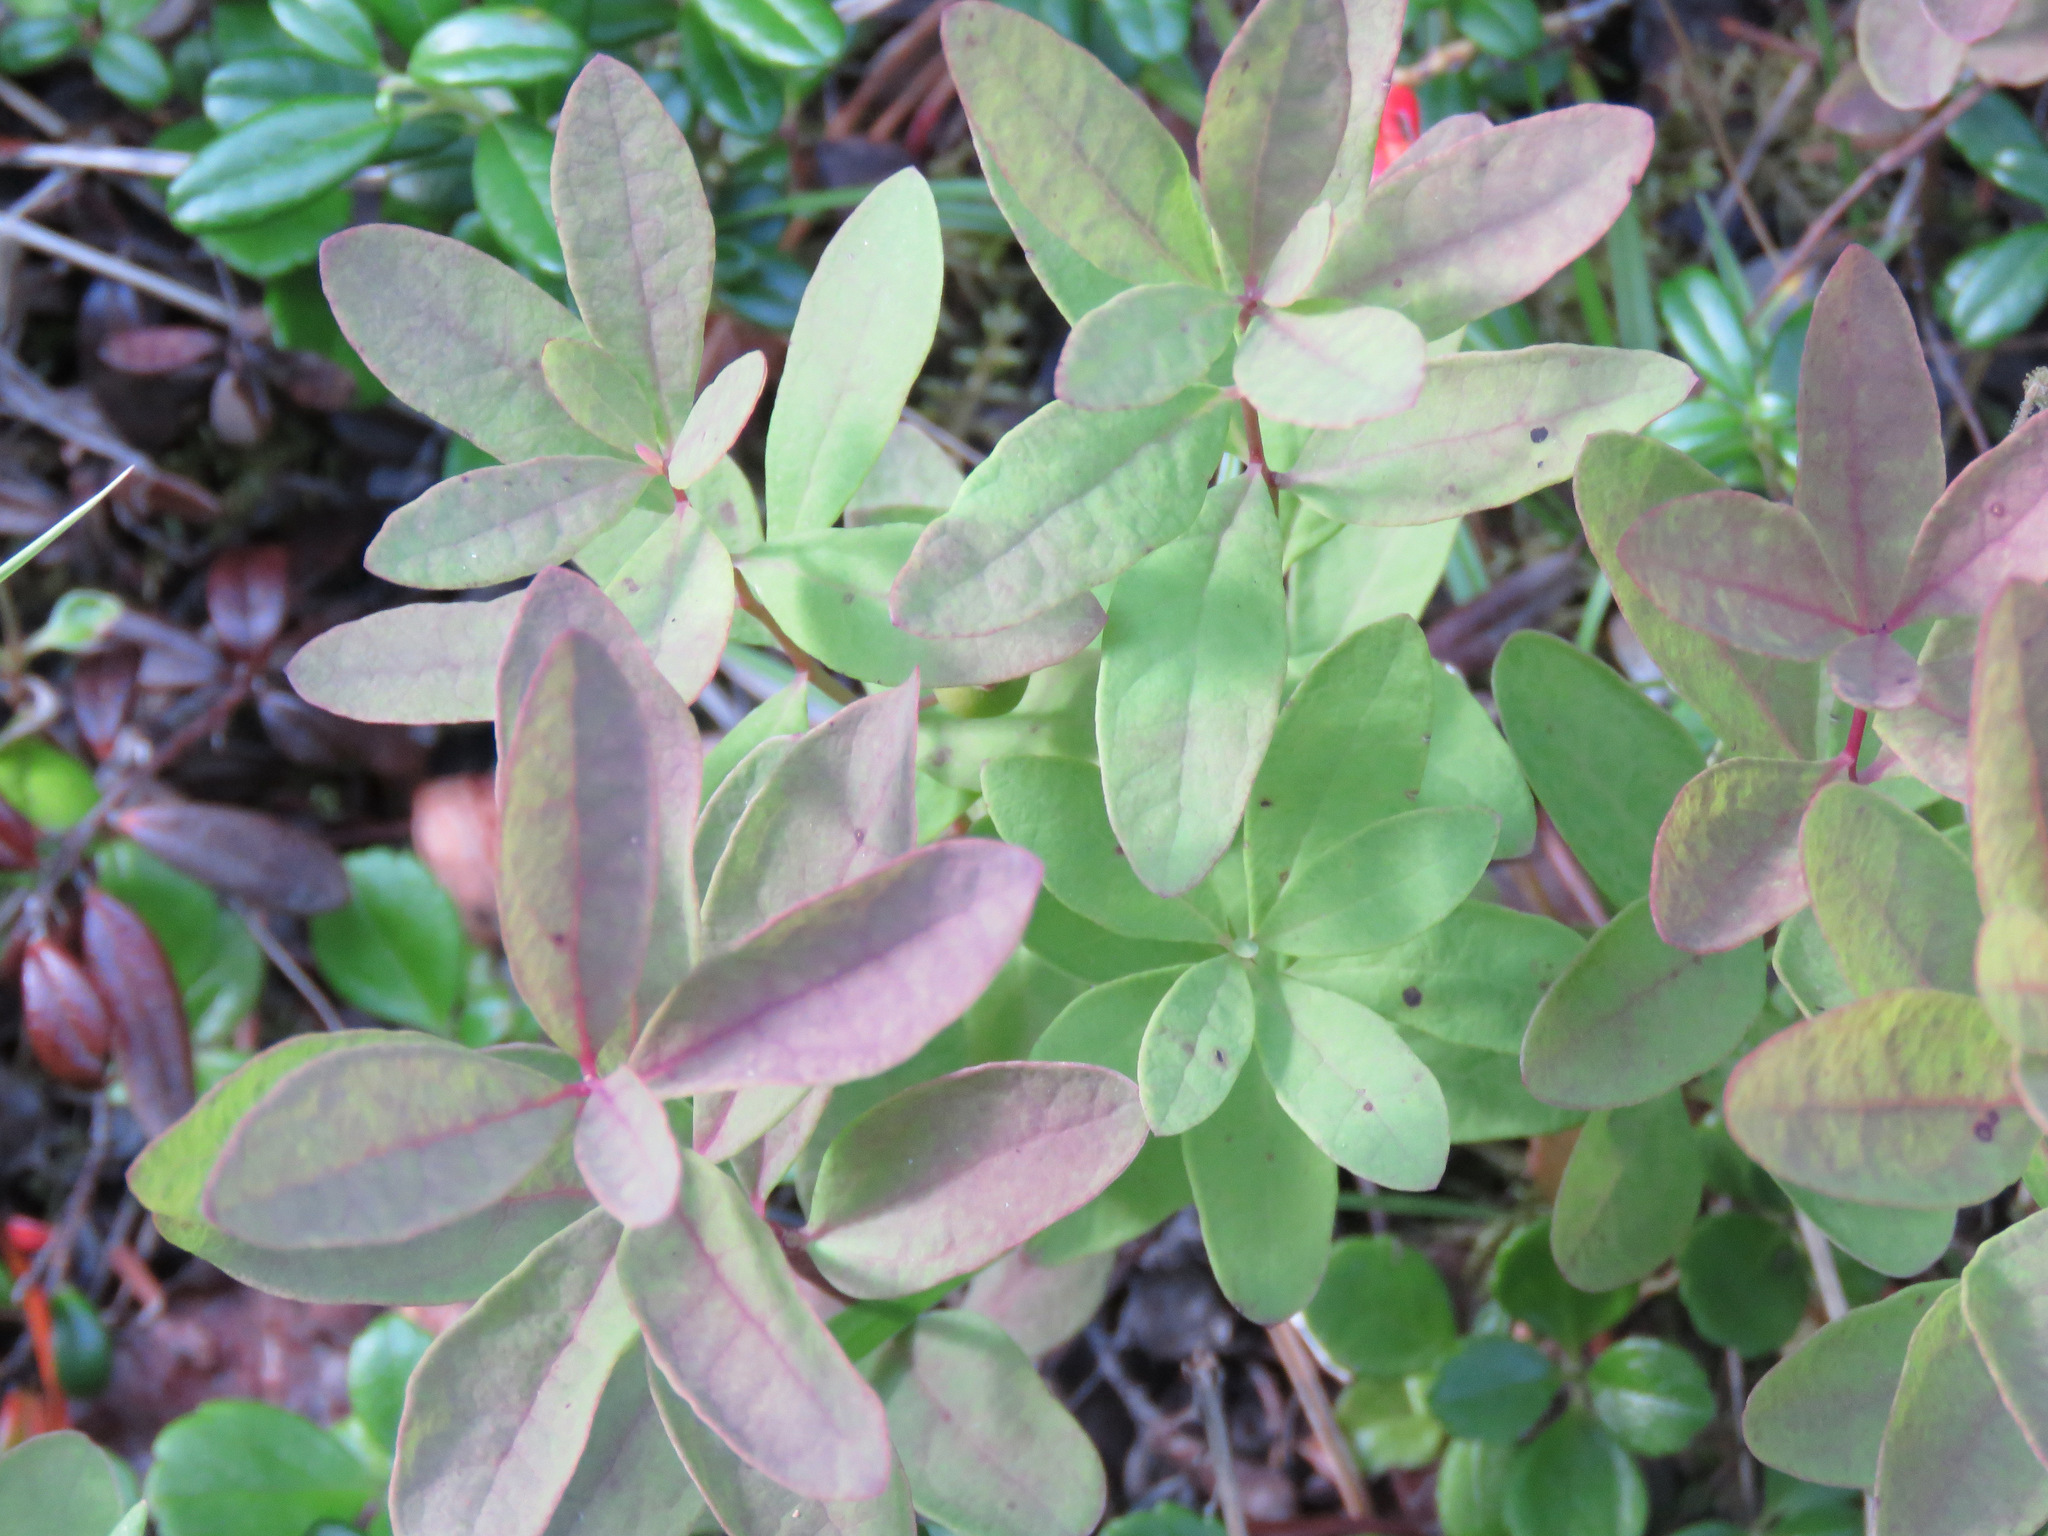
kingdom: Plantae
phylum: Tracheophyta
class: Magnoliopsida
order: Santalales
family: Comandraceae
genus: Geocaulon
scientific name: Geocaulon lividum
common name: Earthberry
